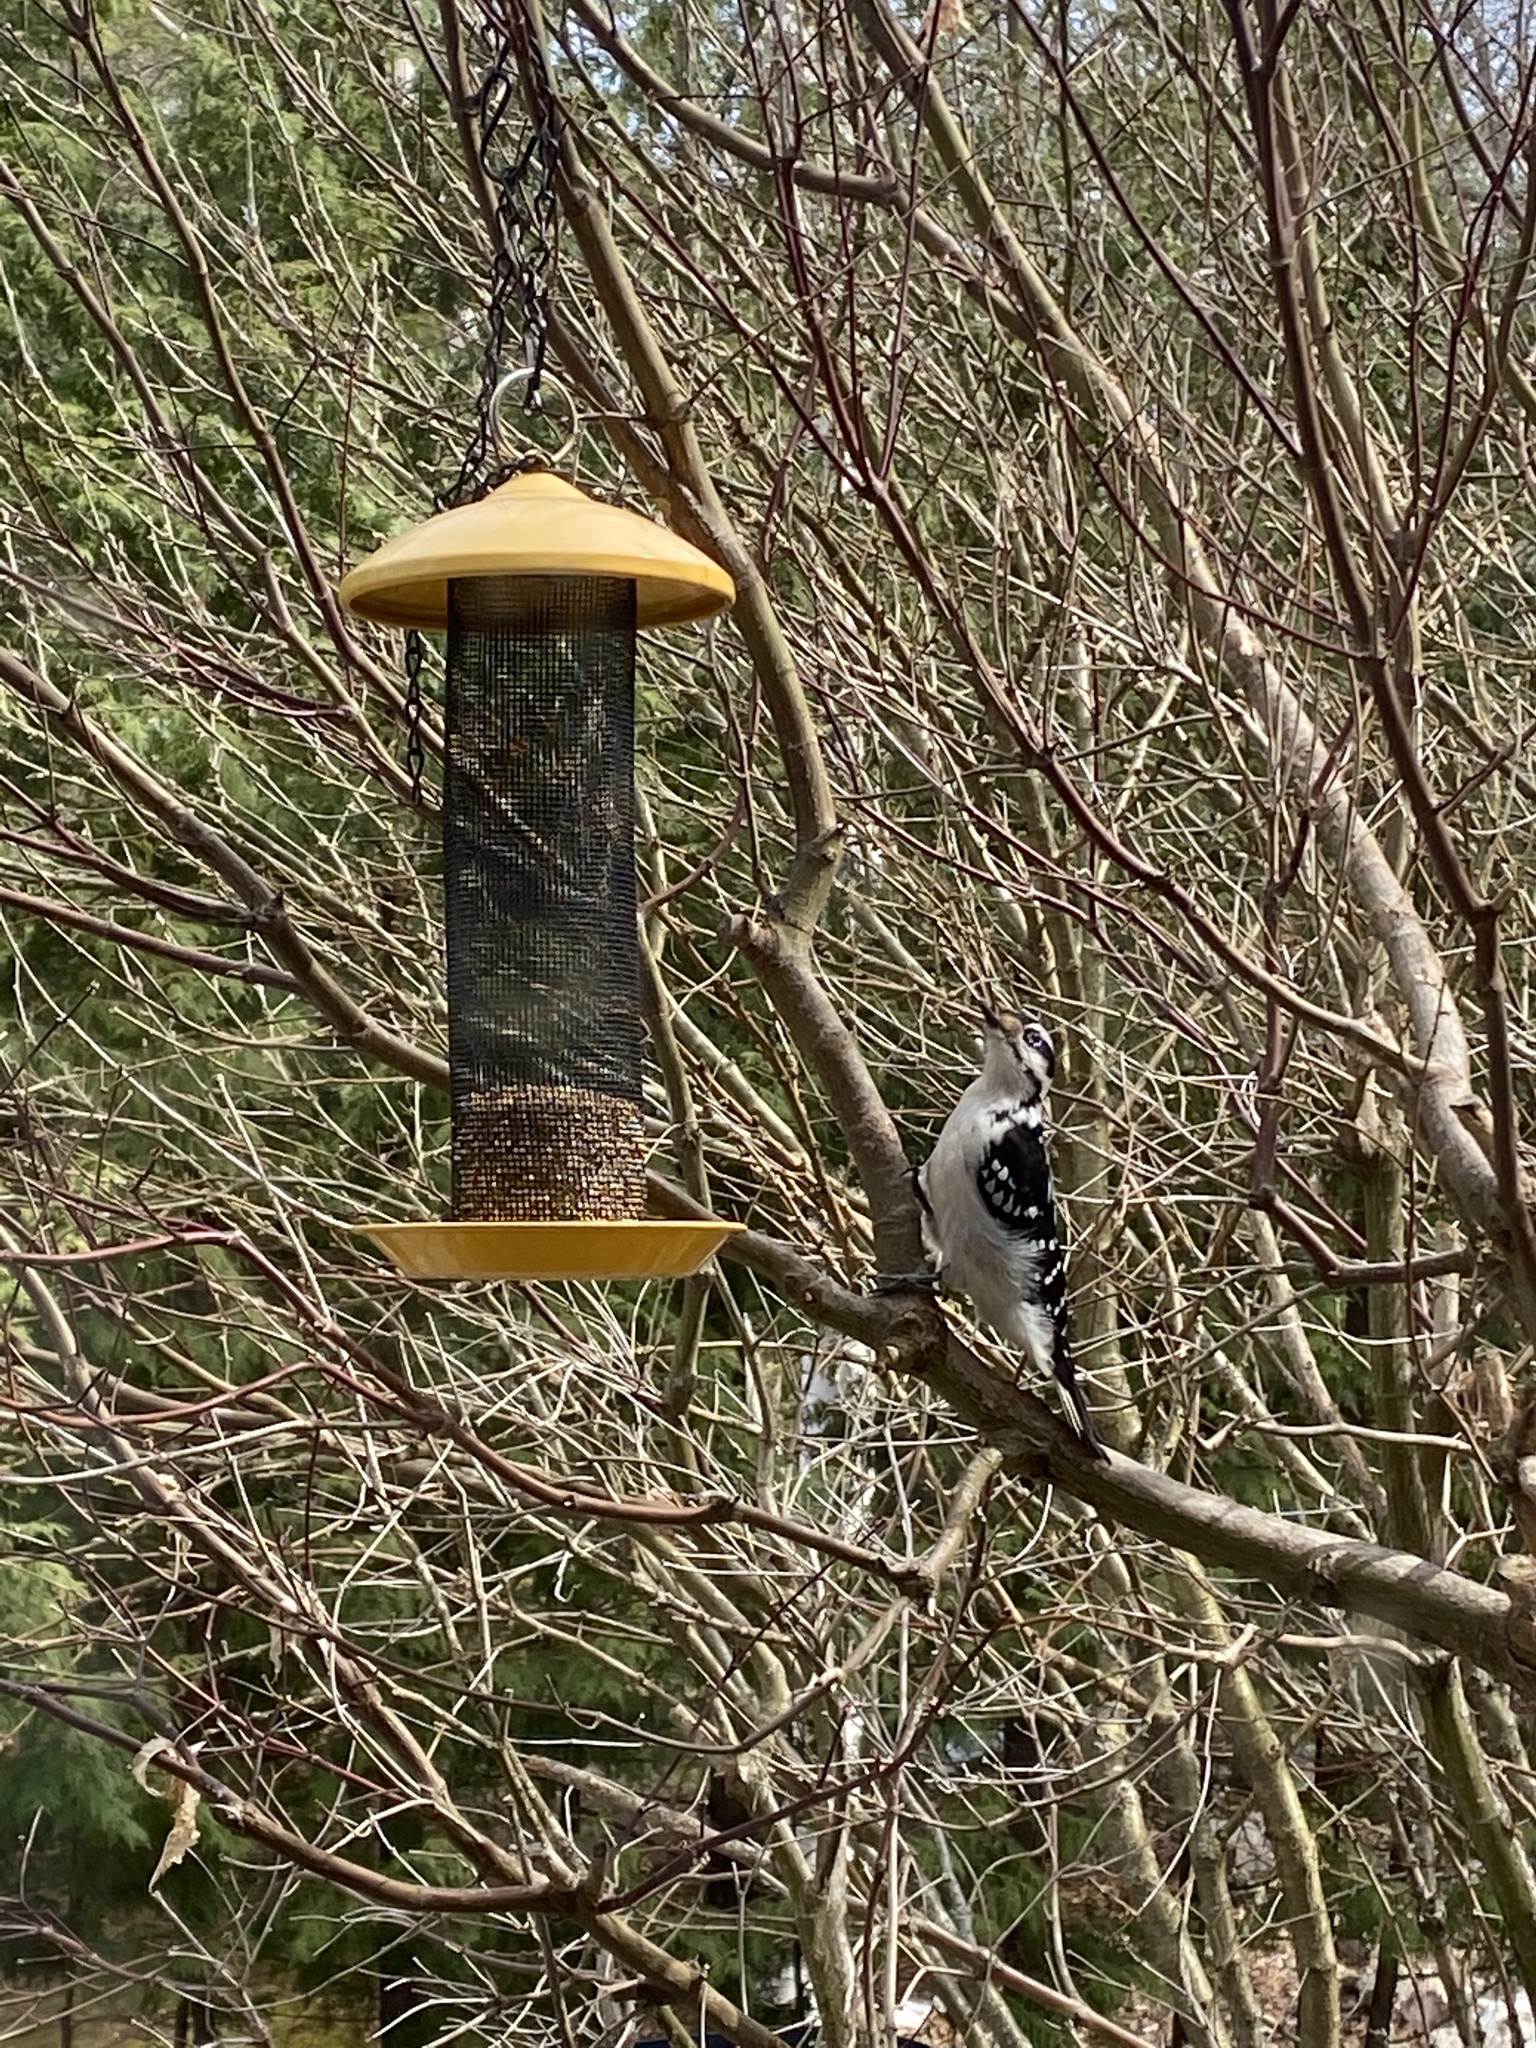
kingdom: Animalia
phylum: Chordata
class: Aves
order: Piciformes
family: Picidae
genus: Leuconotopicus
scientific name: Leuconotopicus villosus
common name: Hairy woodpecker
